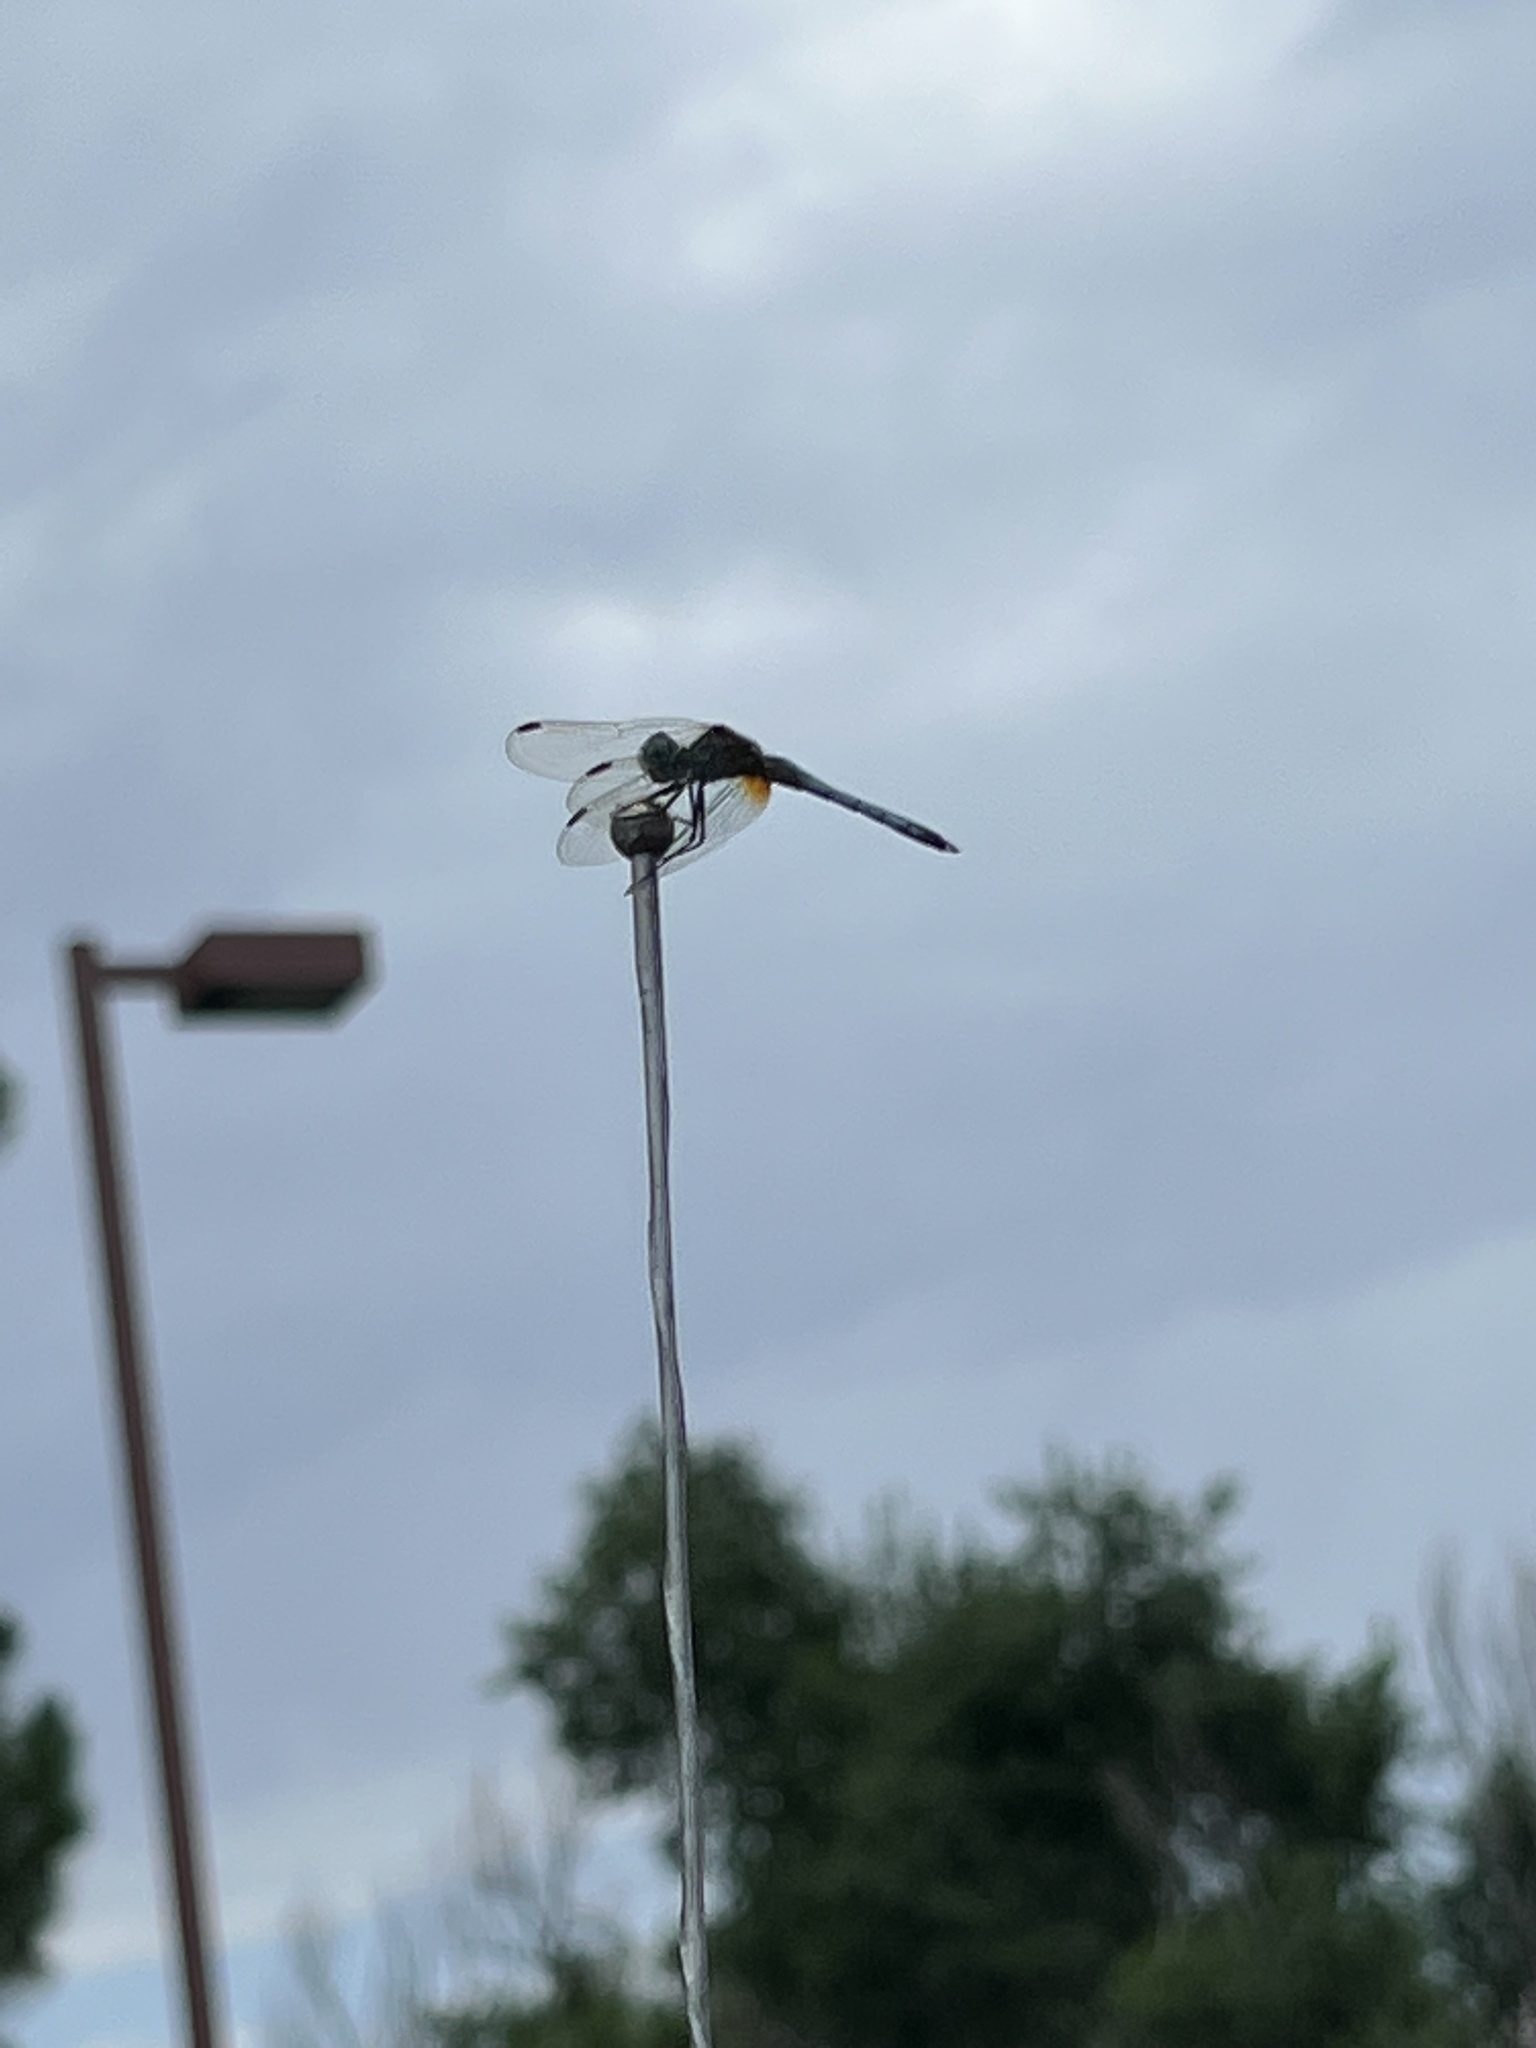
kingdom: Animalia
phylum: Arthropoda
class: Insecta
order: Odonata
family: Libellulidae
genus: Pachydiplax
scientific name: Pachydiplax longipennis
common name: Blue dasher
